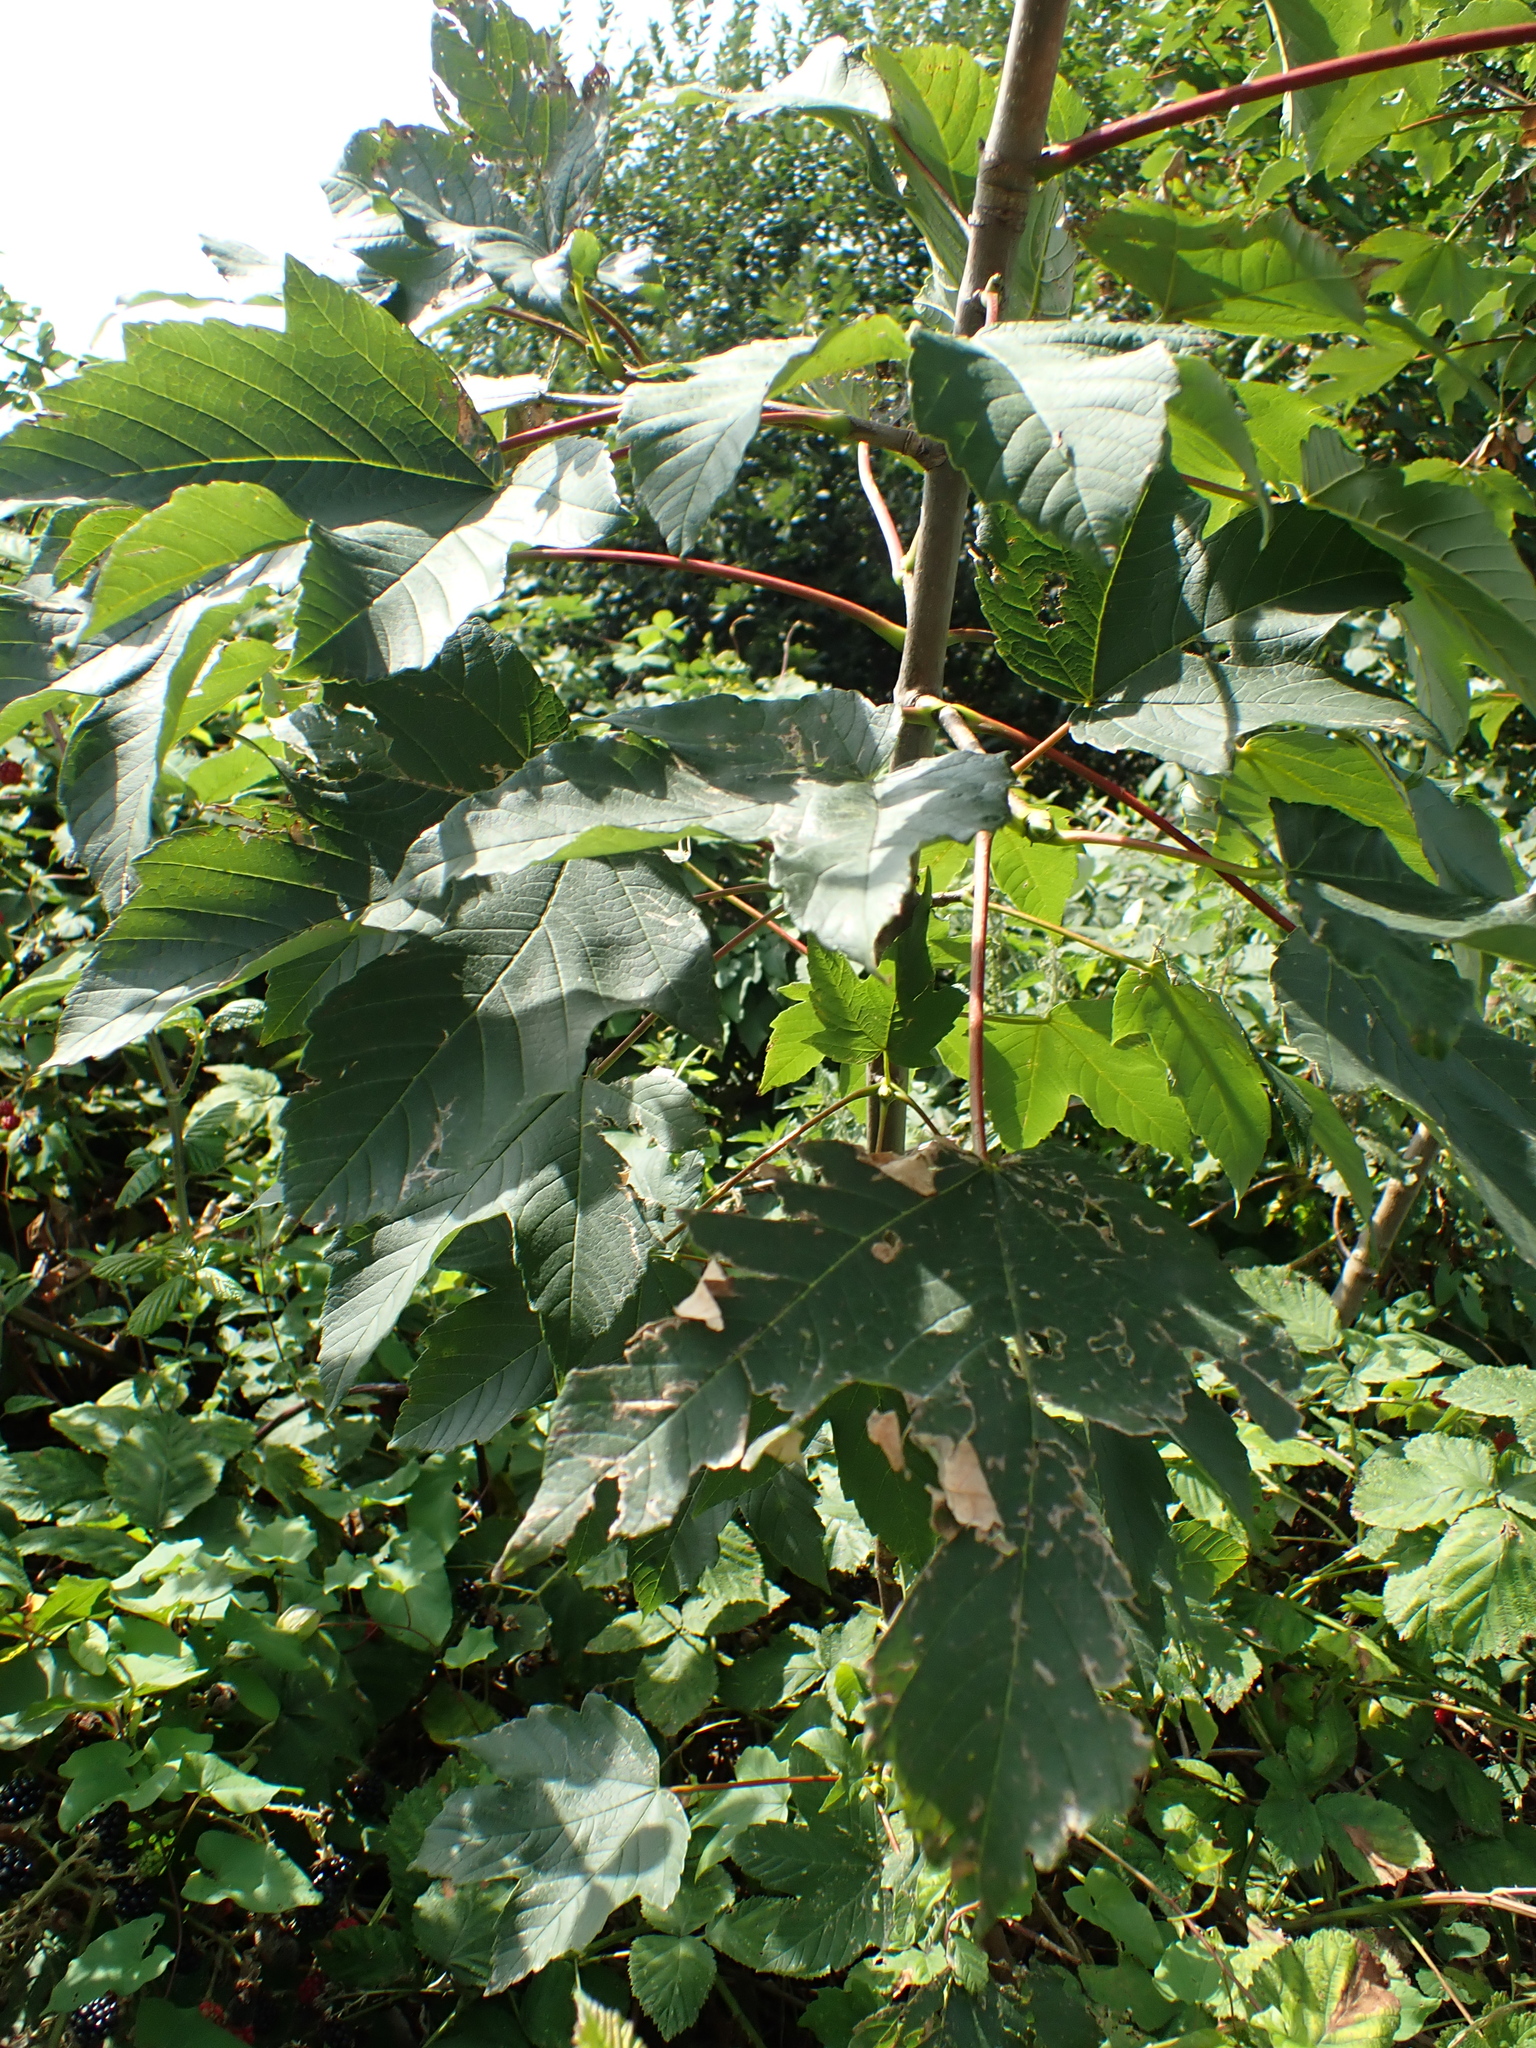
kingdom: Plantae
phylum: Tracheophyta
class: Magnoliopsida
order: Sapindales
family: Sapindaceae
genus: Acer
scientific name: Acer pseudoplatanus
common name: Sycamore
